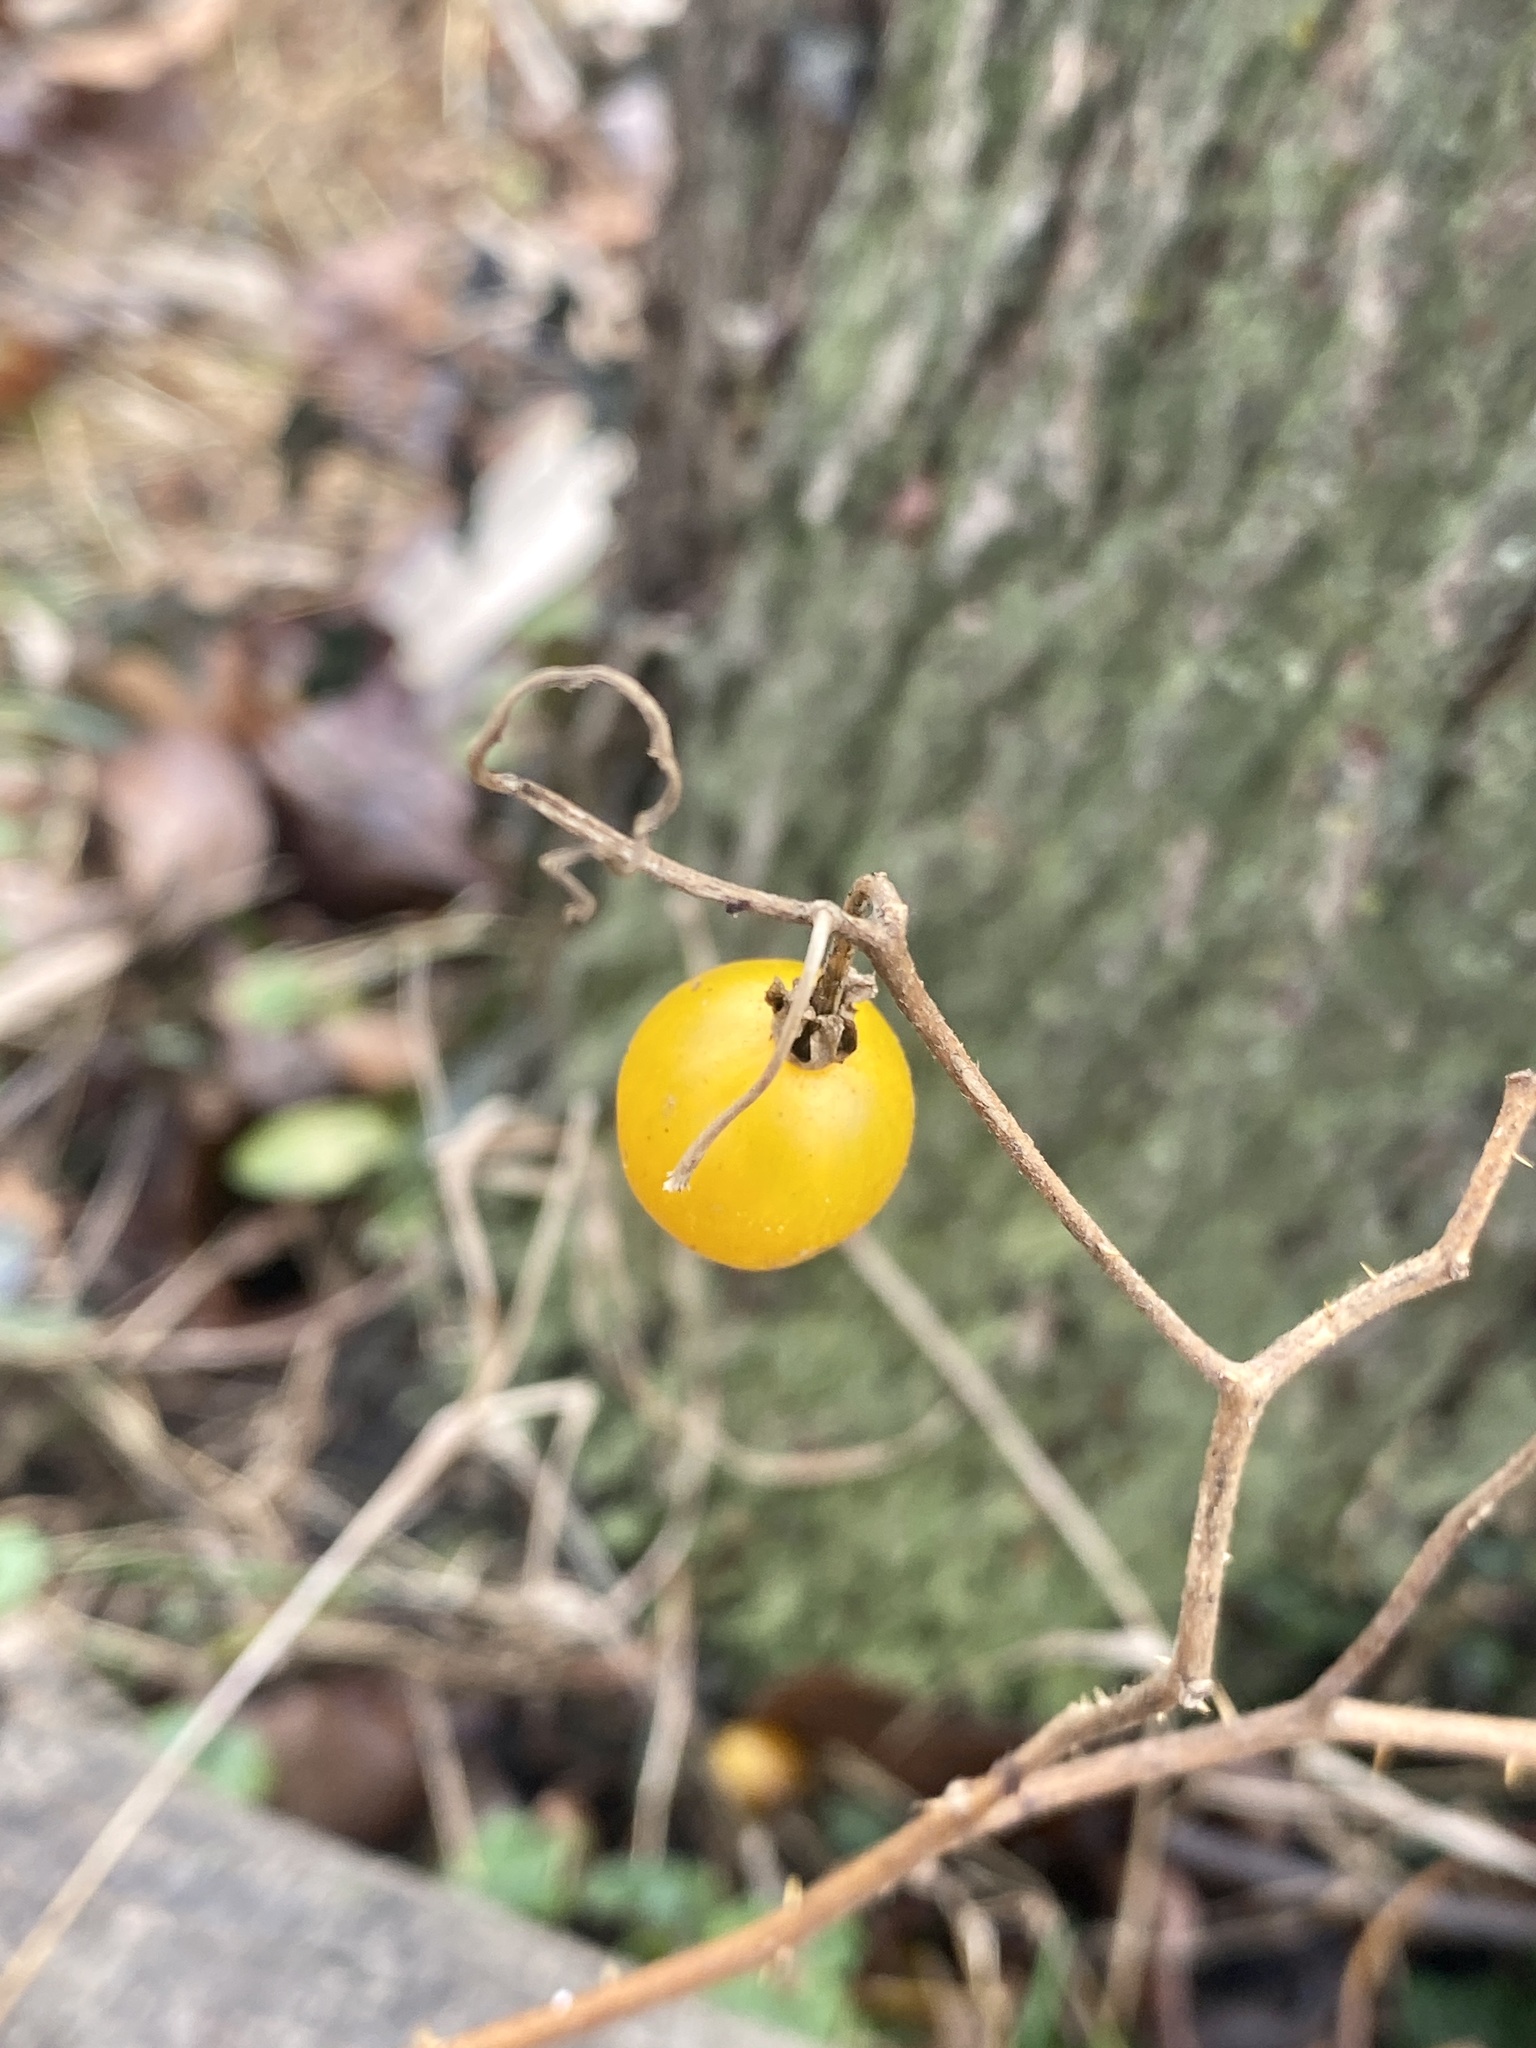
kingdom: Plantae
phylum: Tracheophyta
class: Magnoliopsida
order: Solanales
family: Solanaceae
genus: Solanum
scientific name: Solanum carolinense
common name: Horse-nettle
